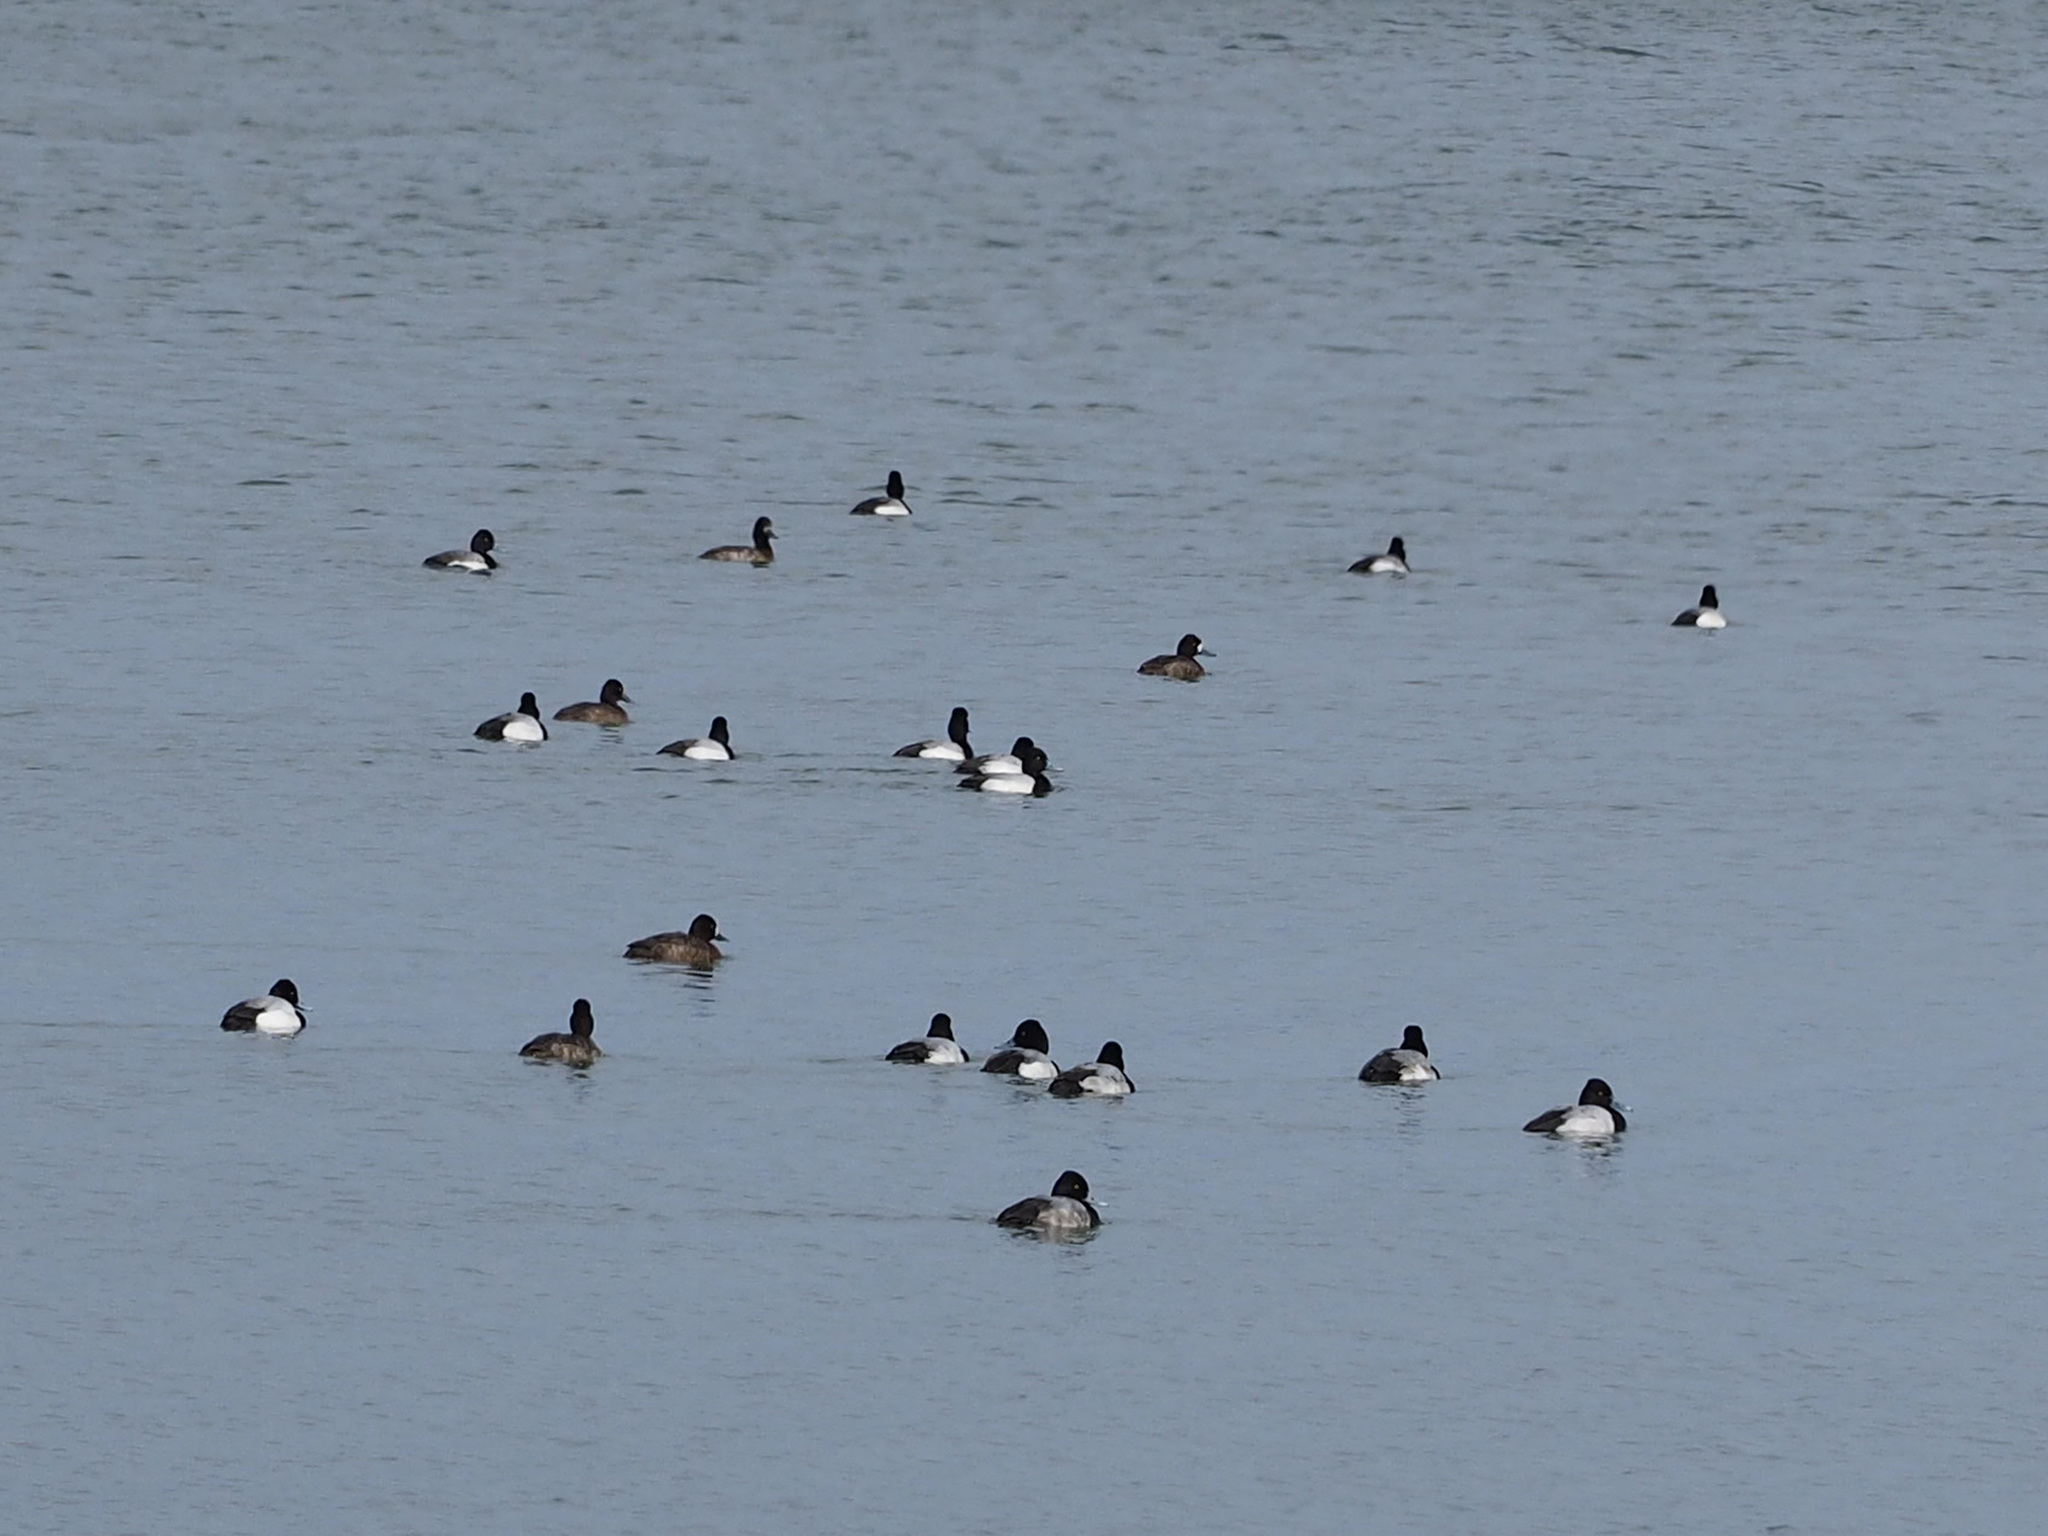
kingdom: Animalia
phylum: Chordata
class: Aves
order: Anseriformes
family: Anatidae
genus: Aythya
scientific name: Aythya affinis
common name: Lesser scaup
